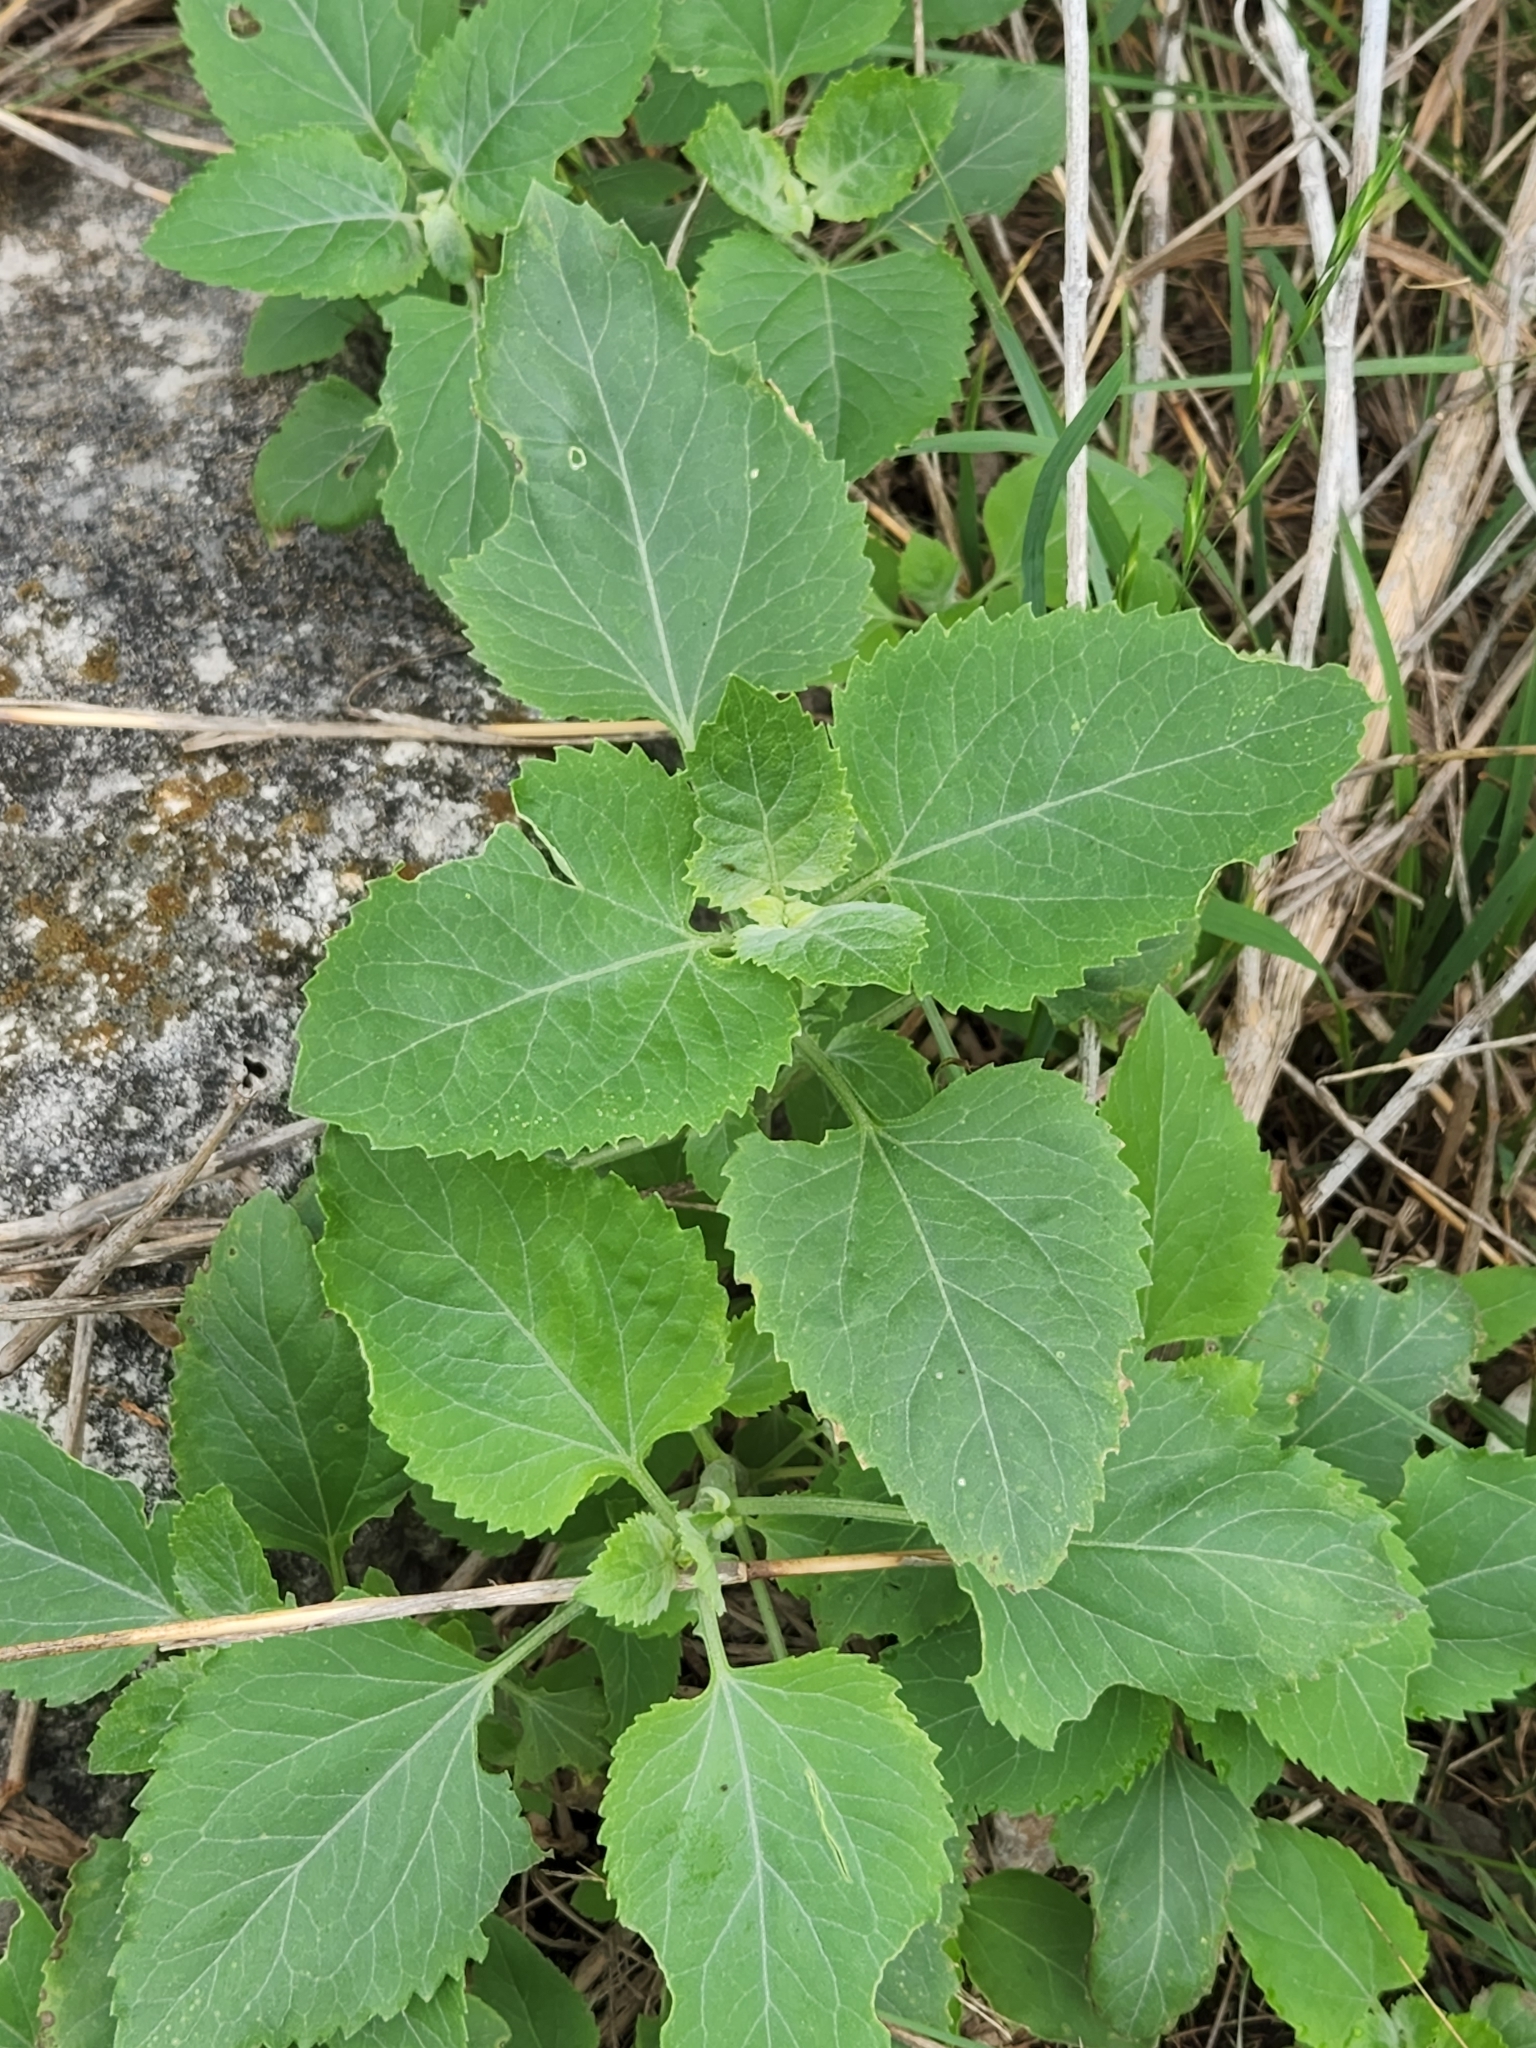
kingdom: Plantae
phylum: Tracheophyta
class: Magnoliopsida
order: Asterales
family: Asteraceae
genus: Verbesina
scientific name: Verbesina encelioides
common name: Golden crownbeard
